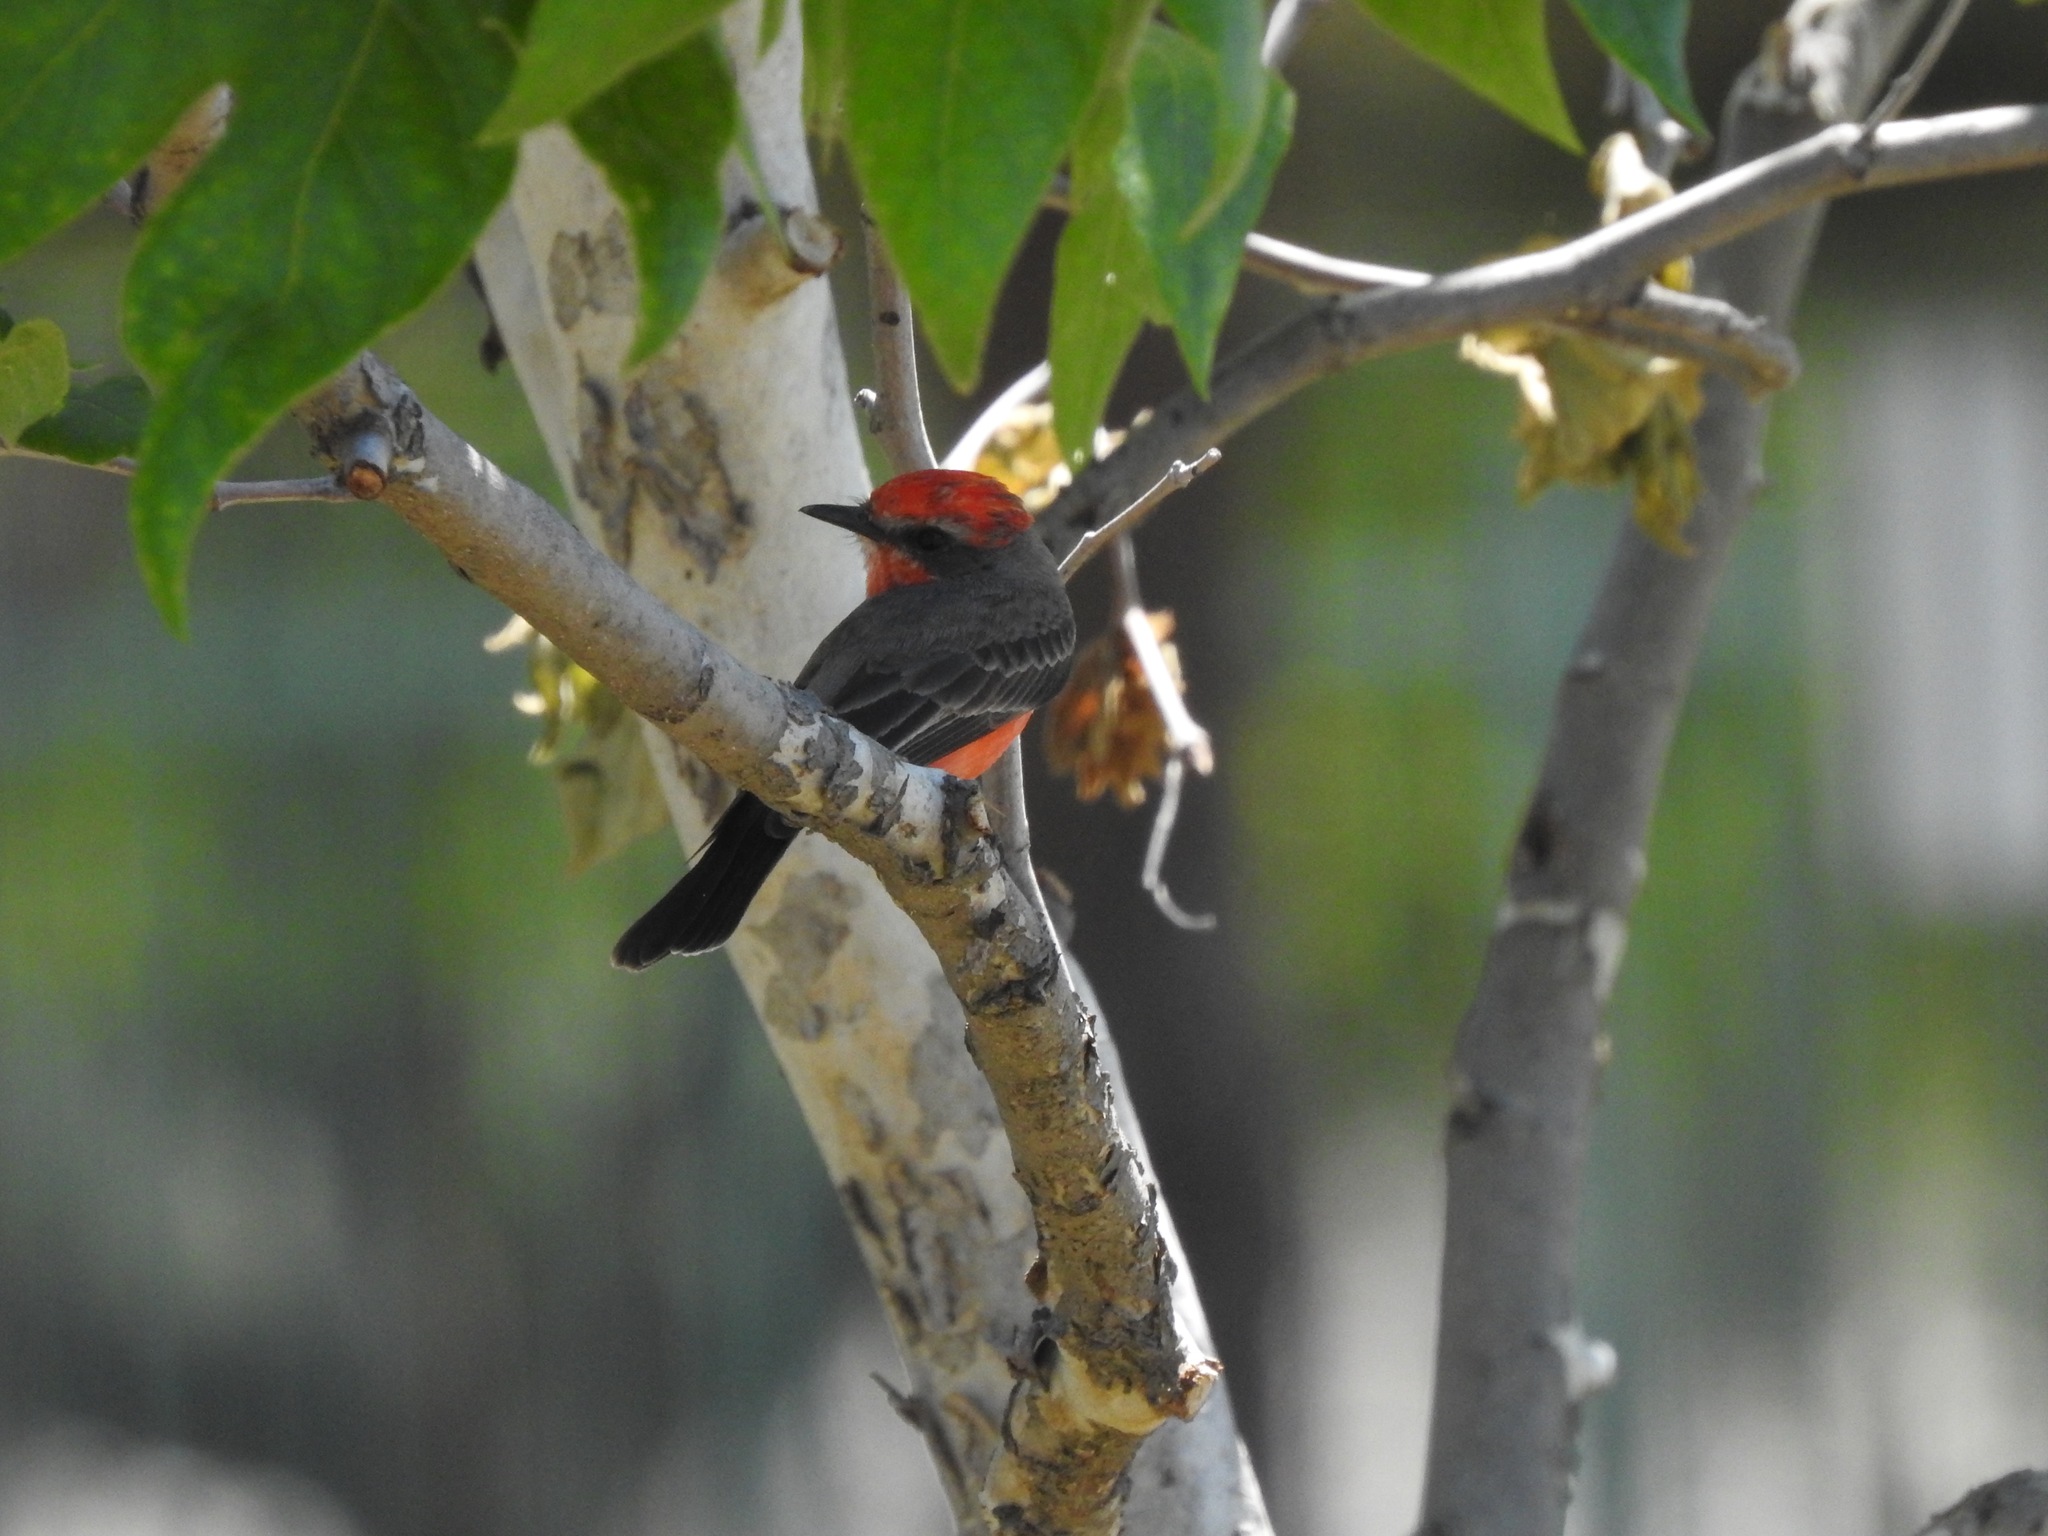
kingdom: Animalia
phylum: Chordata
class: Aves
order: Passeriformes
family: Tyrannidae
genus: Pyrocephalus
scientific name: Pyrocephalus rubinus
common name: Vermilion flycatcher
